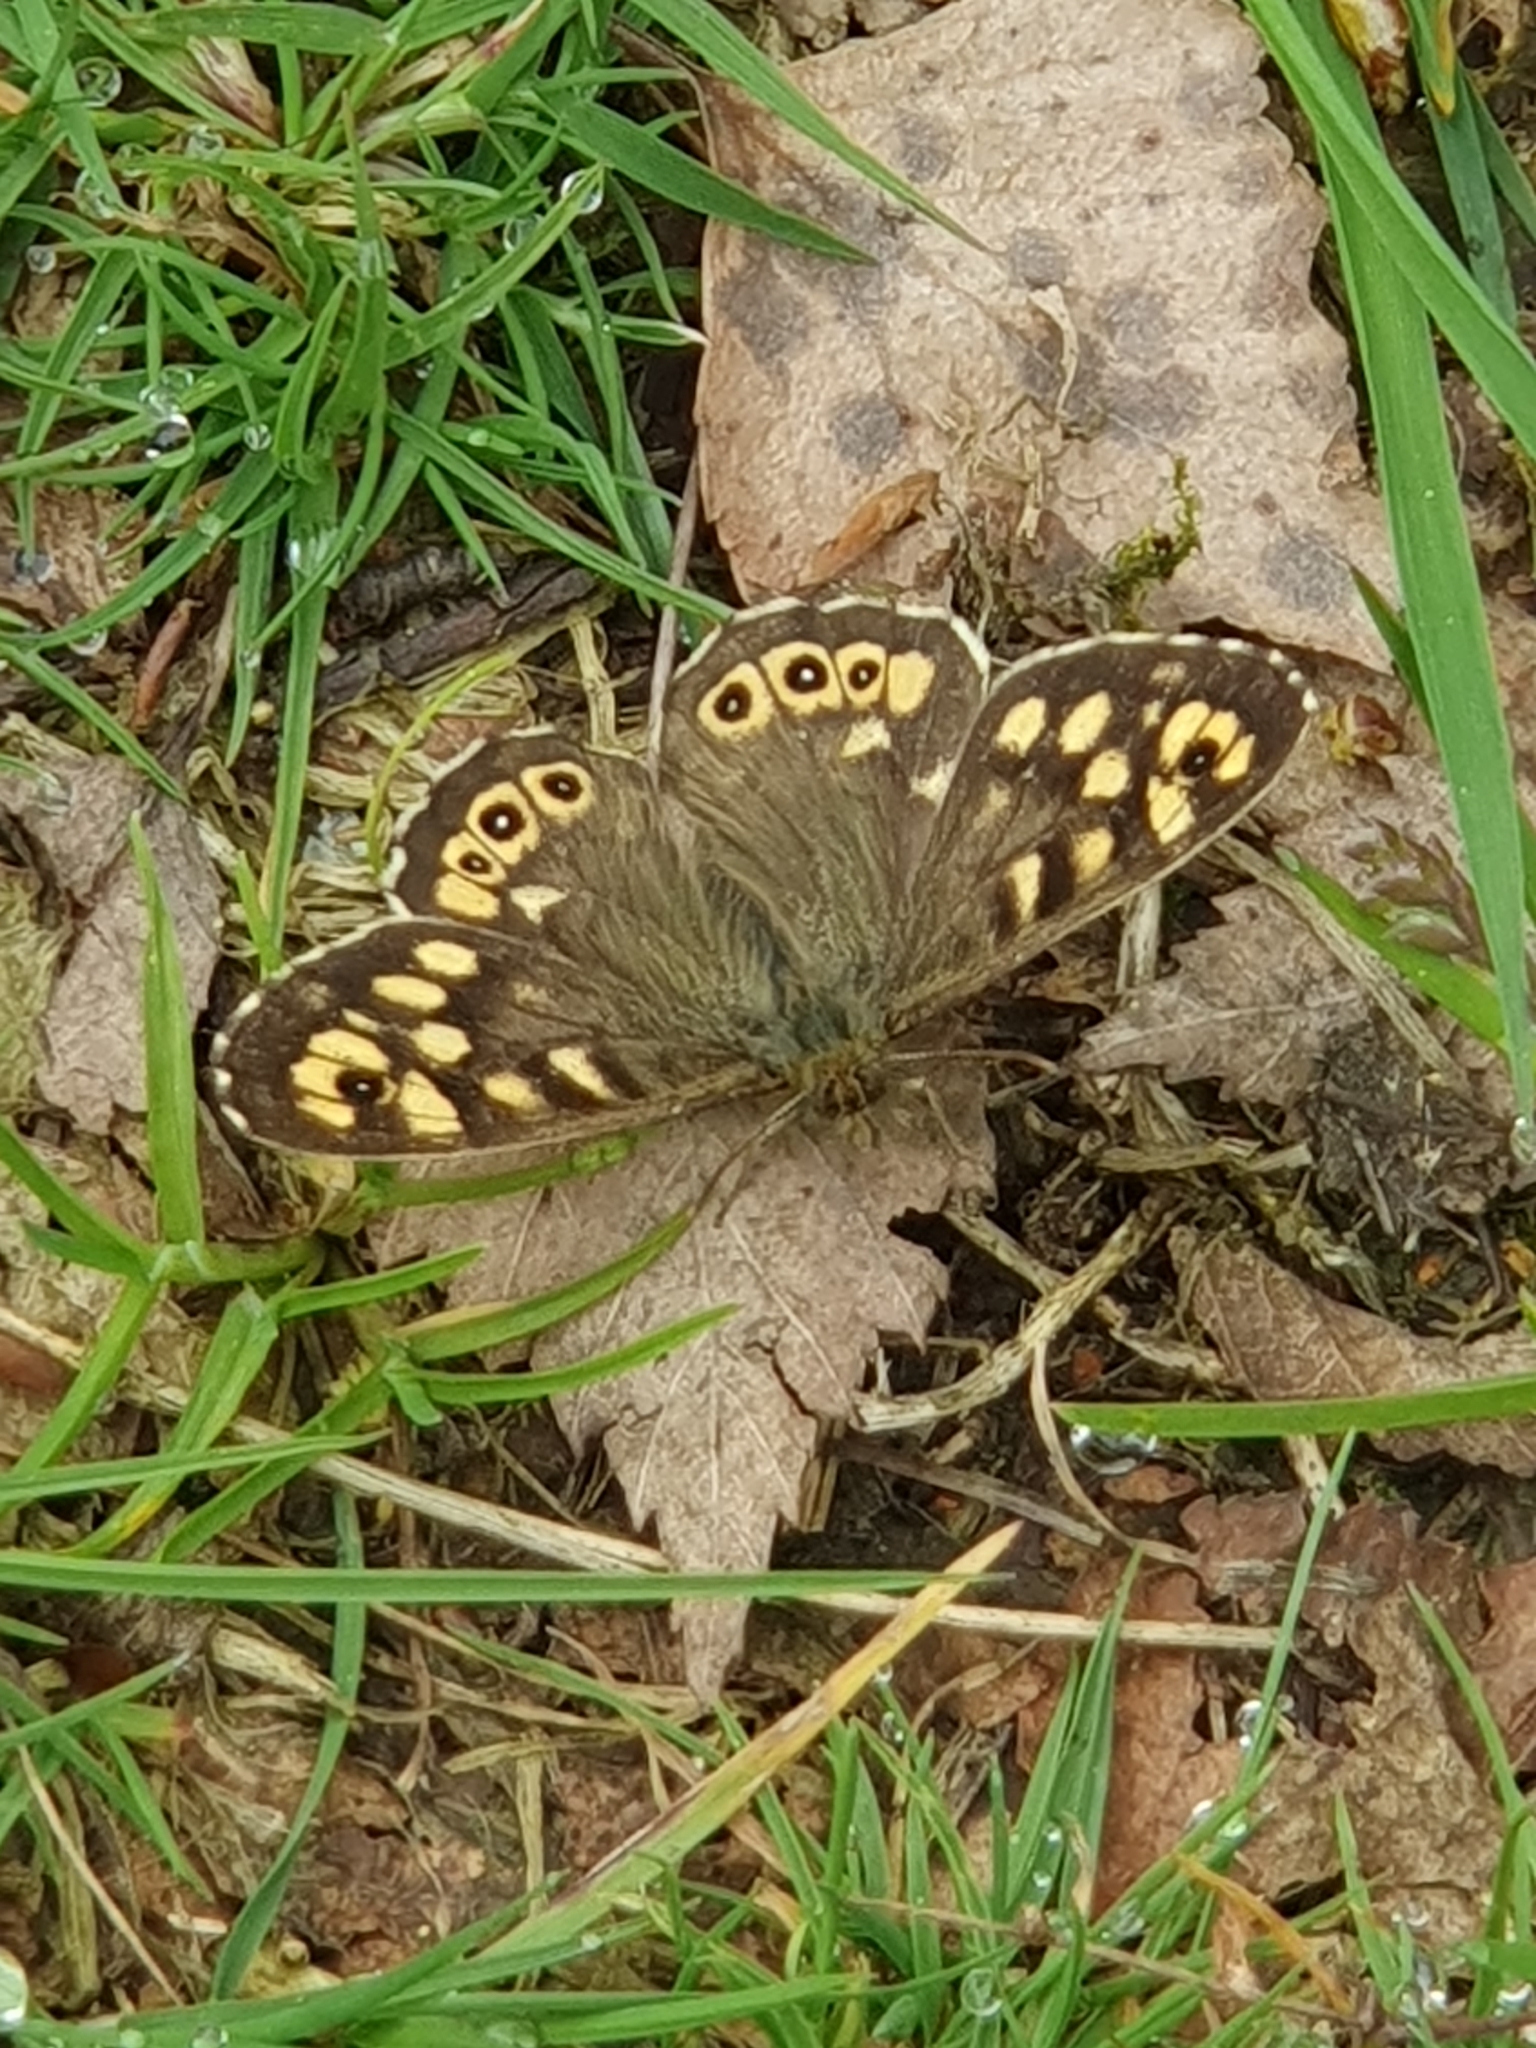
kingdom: Animalia
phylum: Arthropoda
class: Insecta
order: Lepidoptera
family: Nymphalidae
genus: Pararge
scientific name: Pararge aegeria
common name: Speckled wood
